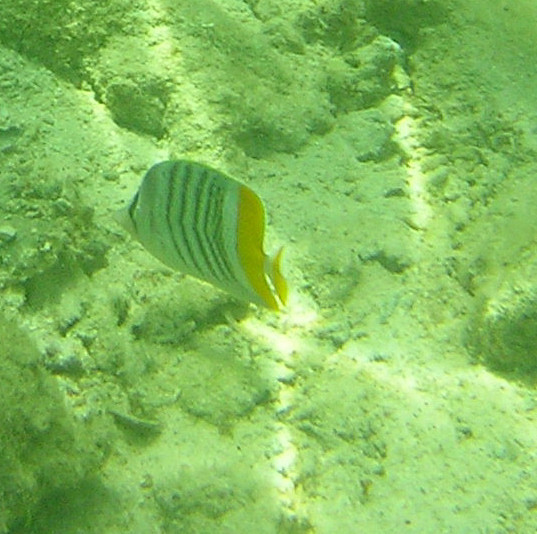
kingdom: Animalia
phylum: Chordata
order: Perciformes
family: Chaetodontidae
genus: Chaetodon
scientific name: Chaetodon mertensii
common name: Merten's butterflyfish
